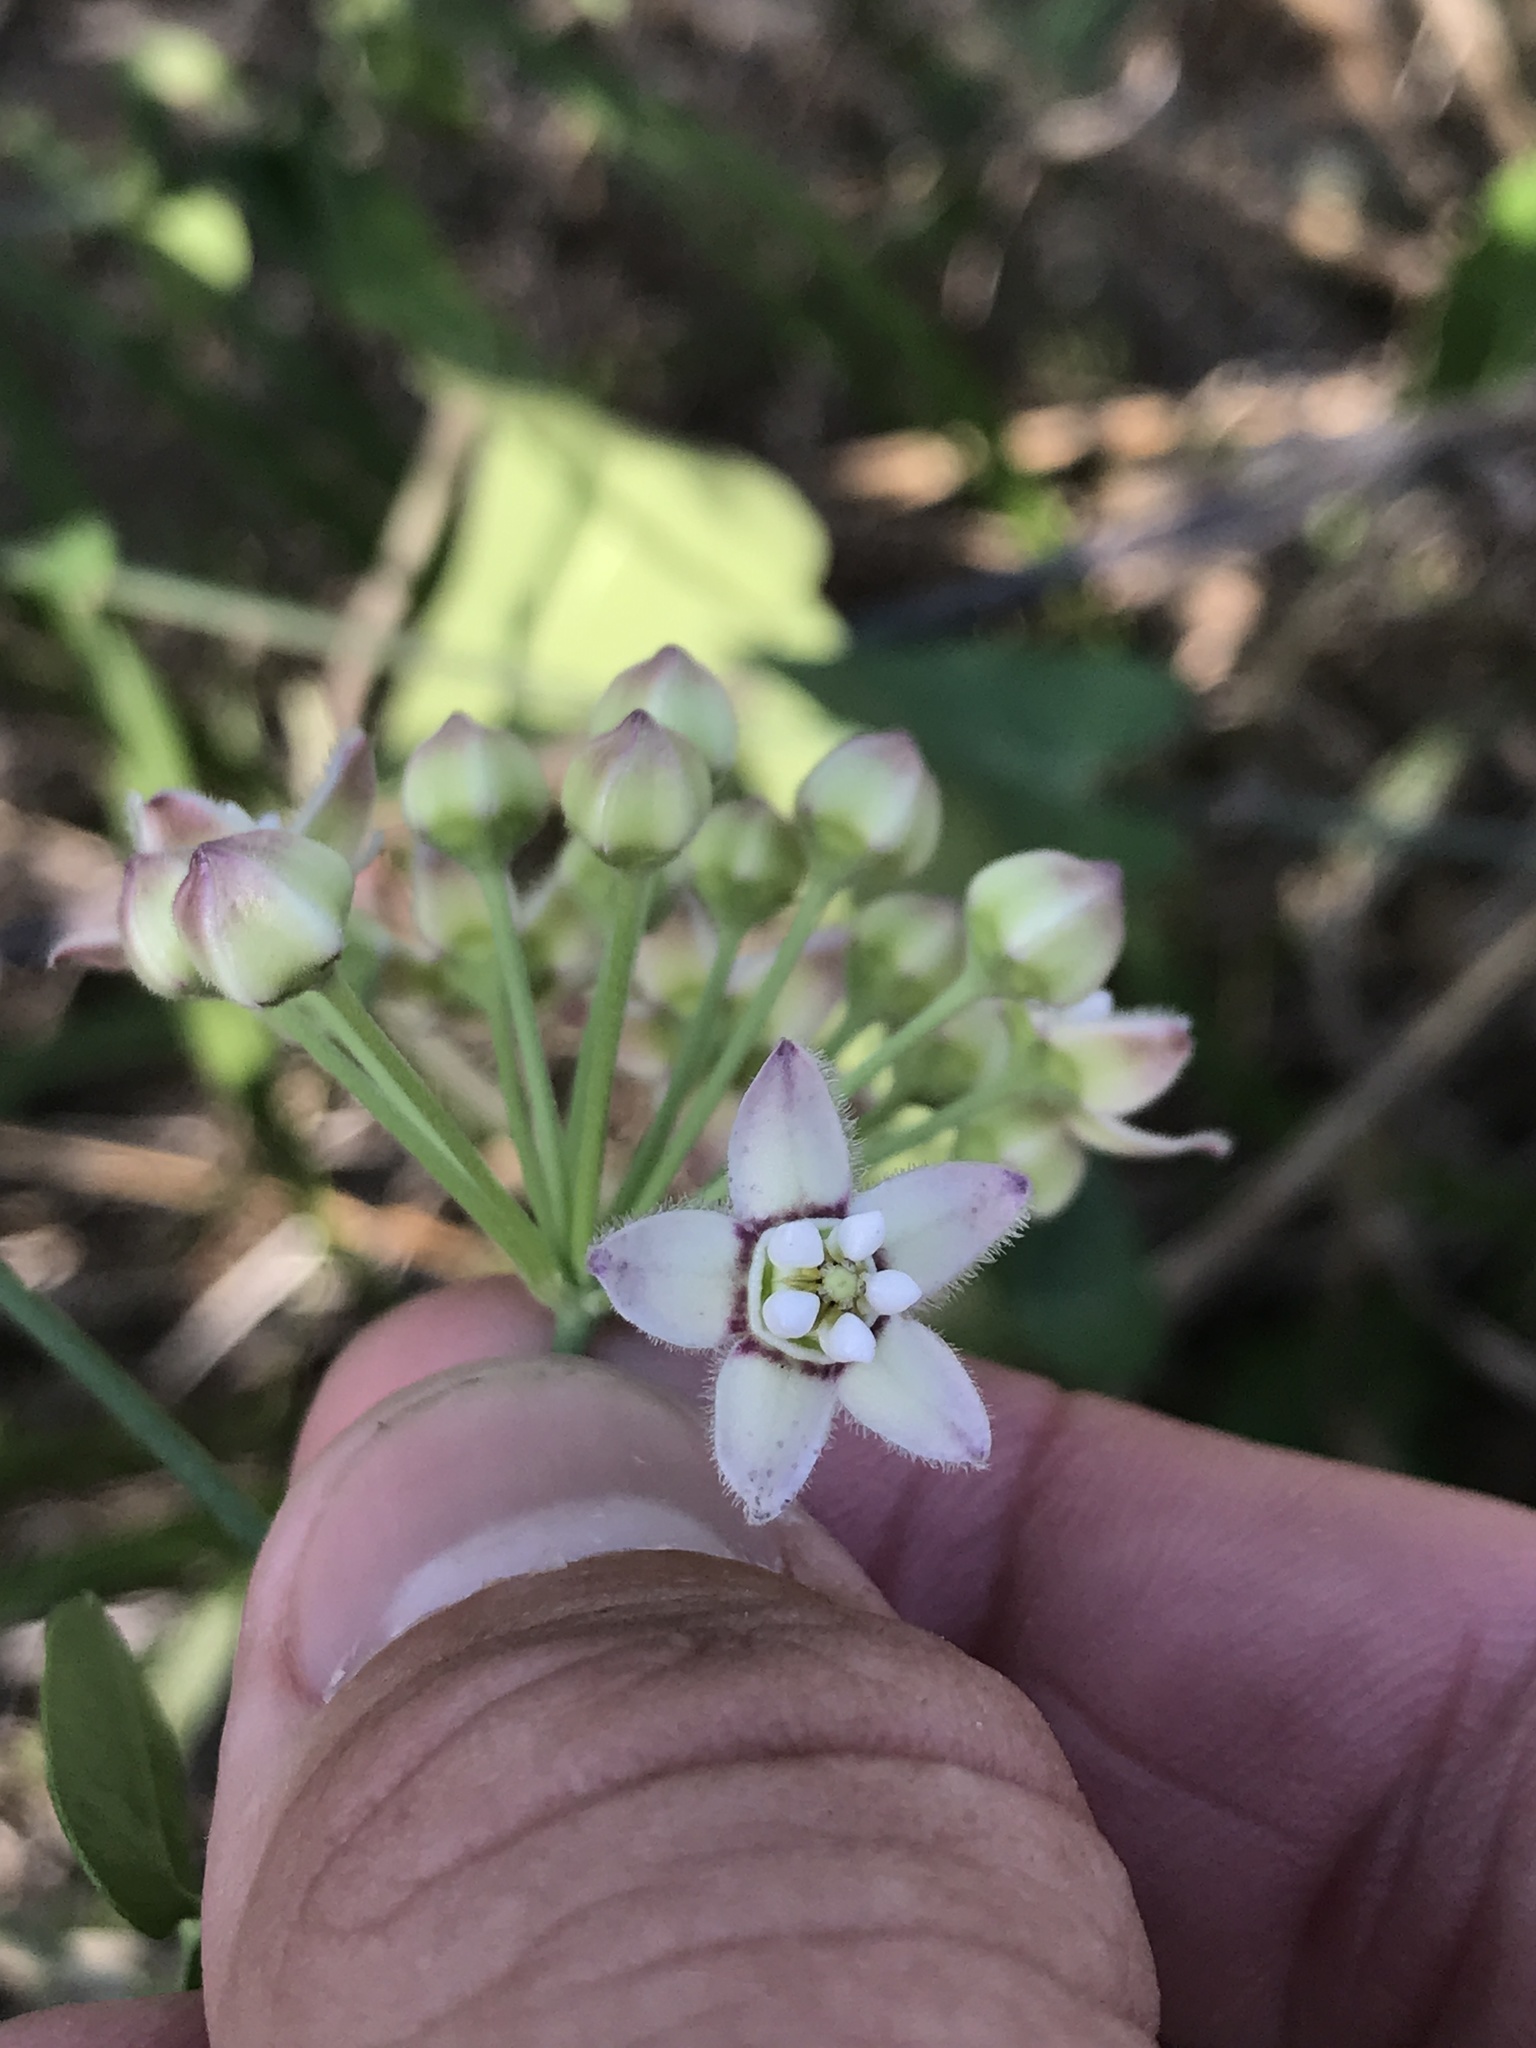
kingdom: Plantae
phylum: Tracheophyta
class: Magnoliopsida
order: Gentianales
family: Apocynaceae
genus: Funastrum
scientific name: Funastrum cynanchoides
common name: Climbing-milkweed
